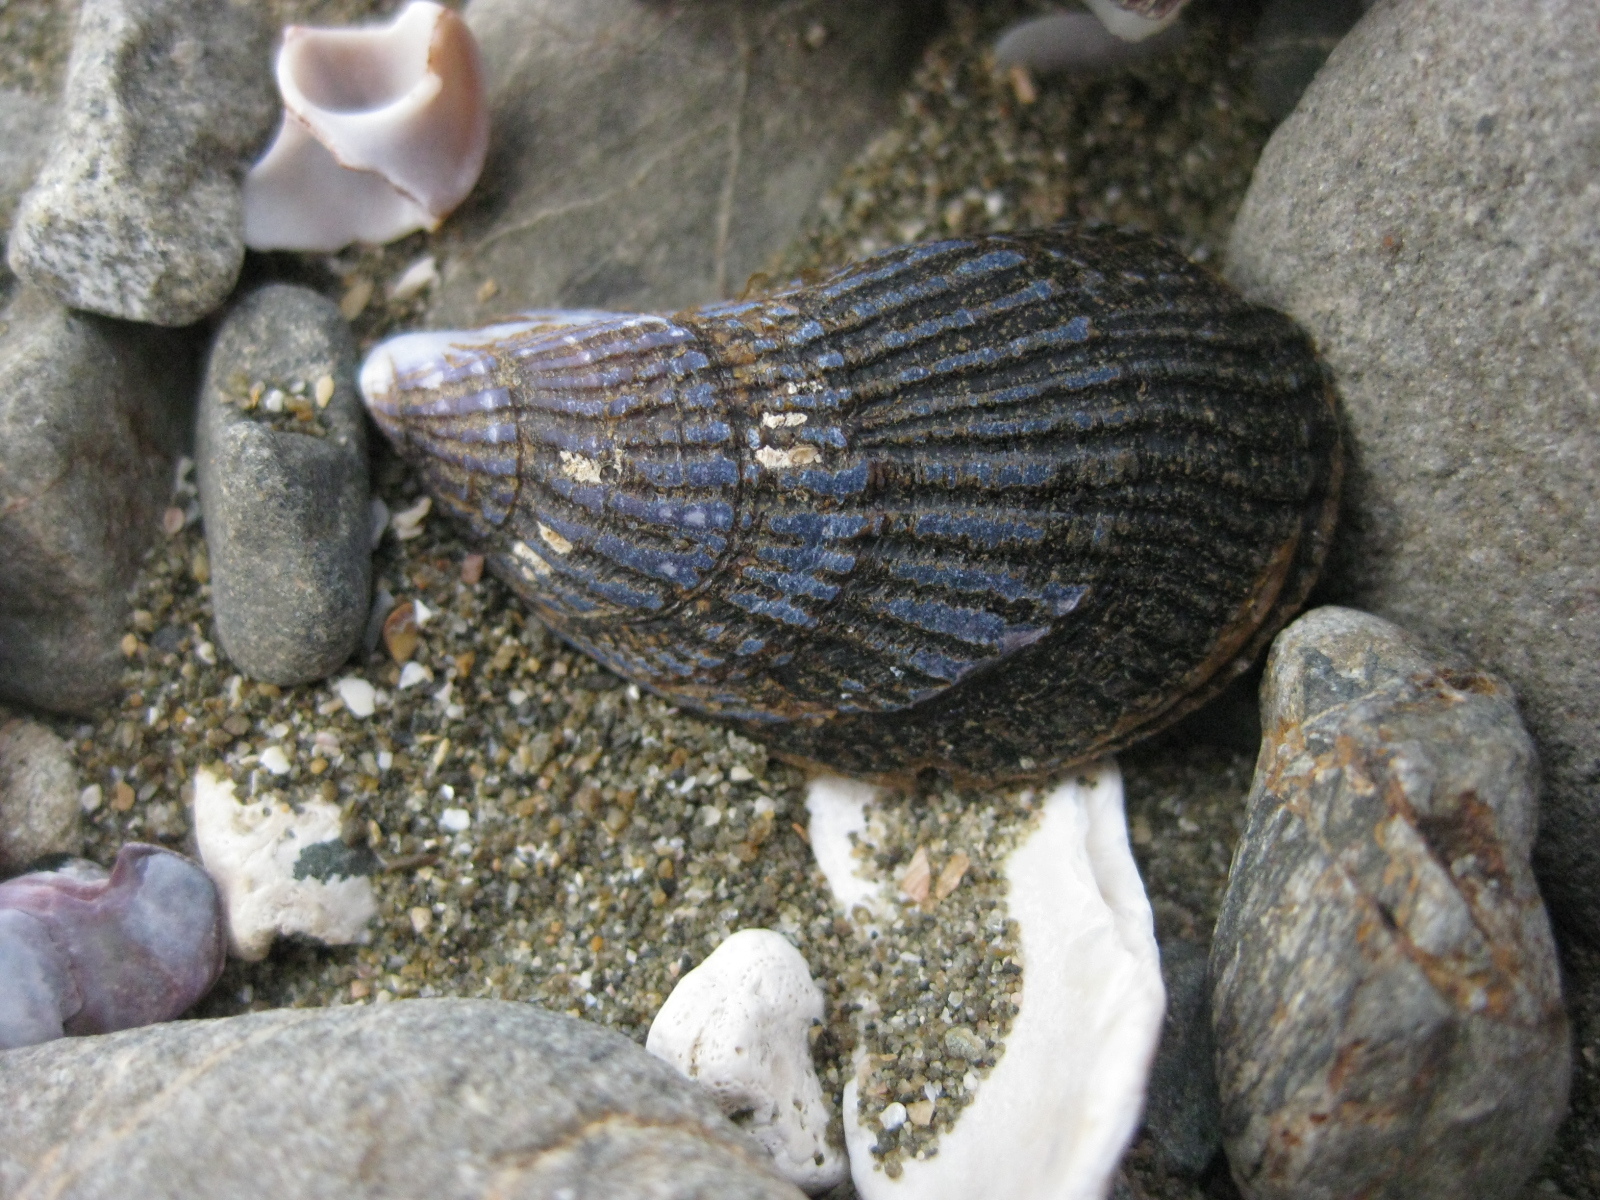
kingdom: Animalia
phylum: Mollusca
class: Bivalvia
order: Mytilida
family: Mytilidae
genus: Aulacomya
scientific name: Aulacomya maoriana
